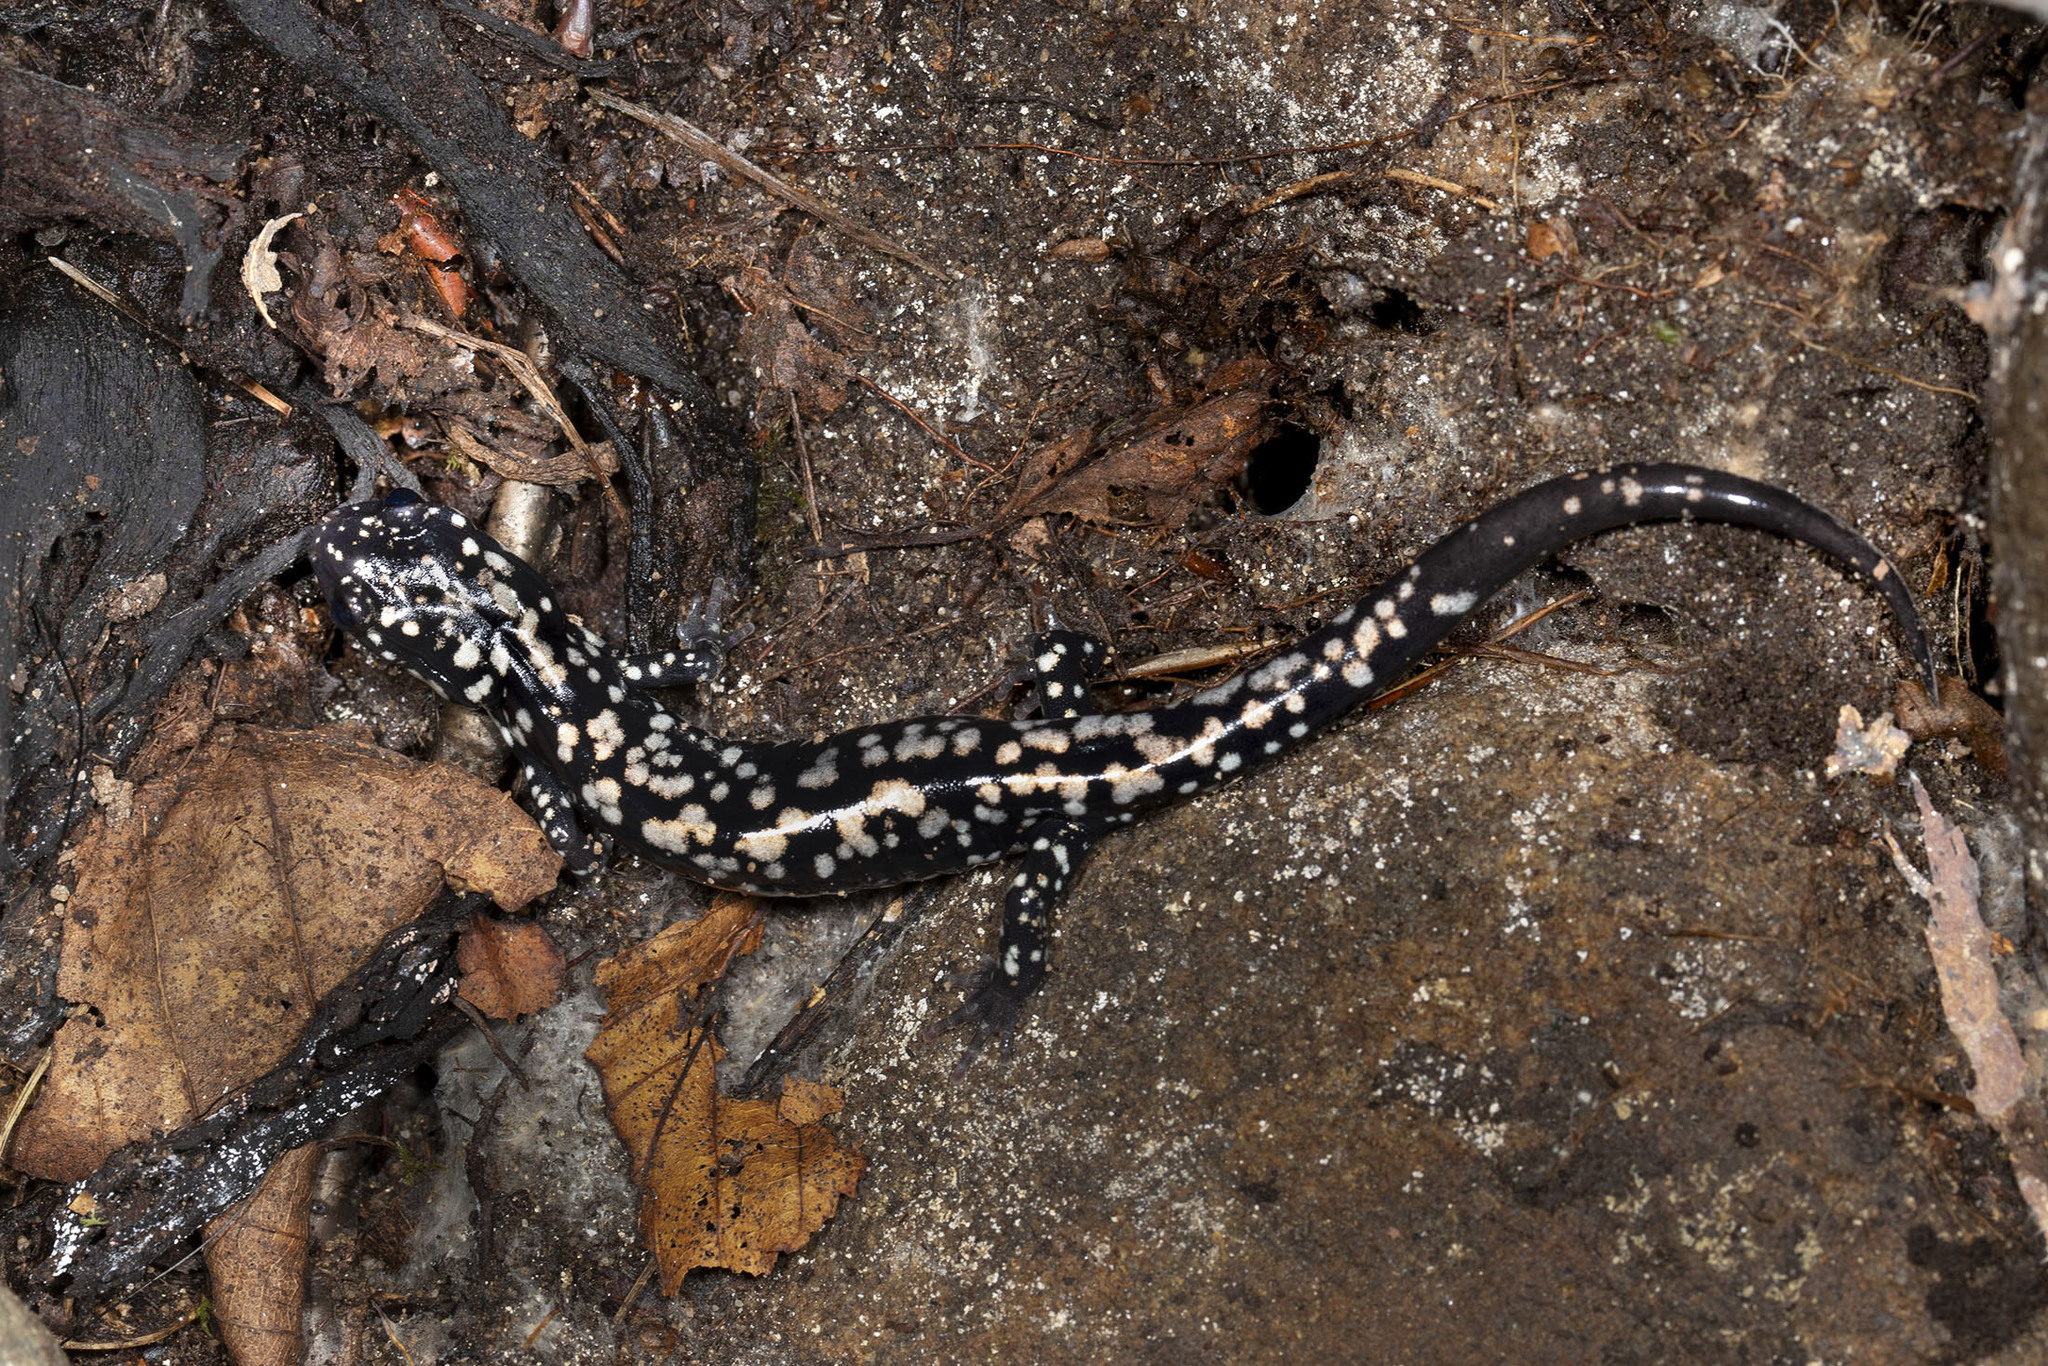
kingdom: Animalia
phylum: Chordata
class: Amphibia
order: Caudata
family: Plethodontidae
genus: Plethodon
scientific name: Plethodon glutinosus
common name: Northern slimy salamander
